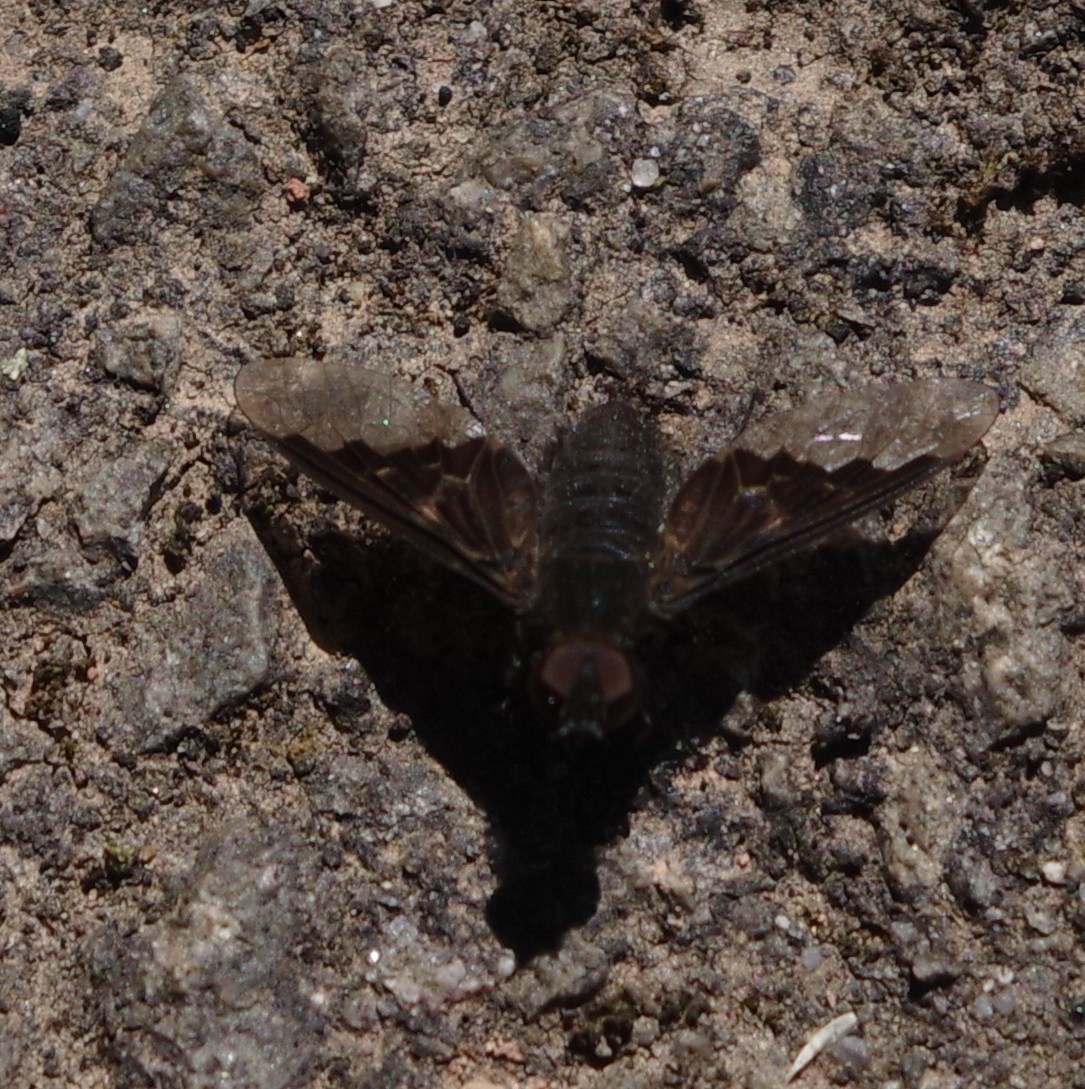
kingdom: Animalia
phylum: Arthropoda
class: Insecta
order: Diptera
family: Bombyliidae
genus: Hemipenthes
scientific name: Hemipenthes morio
